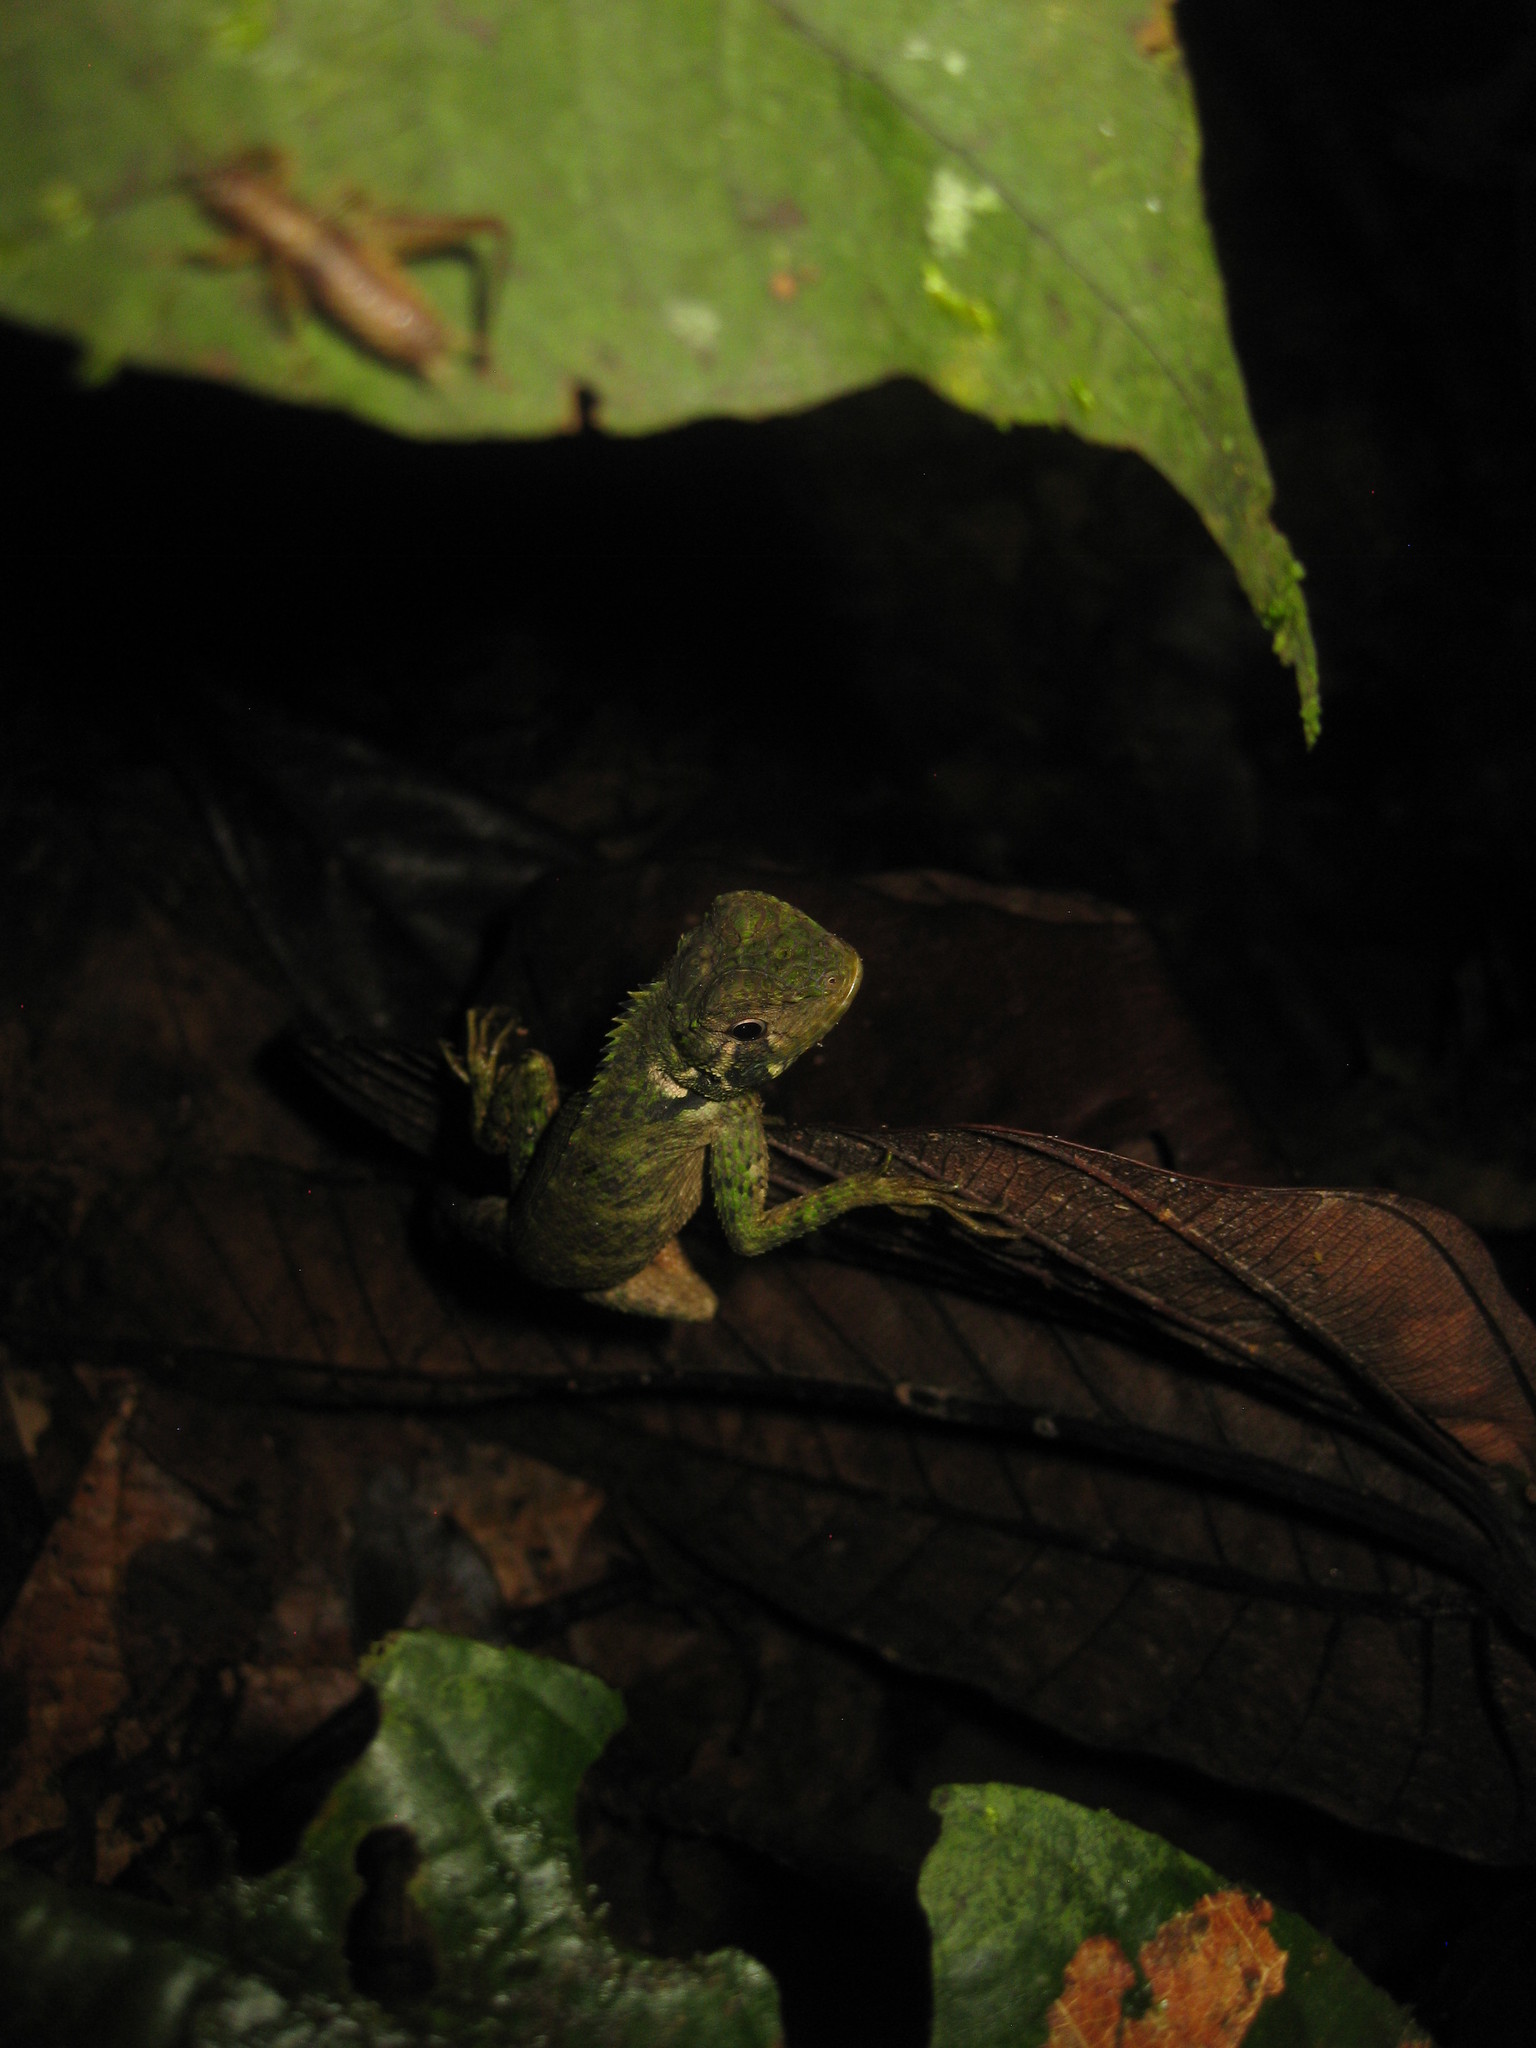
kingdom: Animalia
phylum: Chordata
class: Squamata
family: Tropiduridae
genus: Plica
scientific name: Plica umbra
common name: Harlequin racerunner
